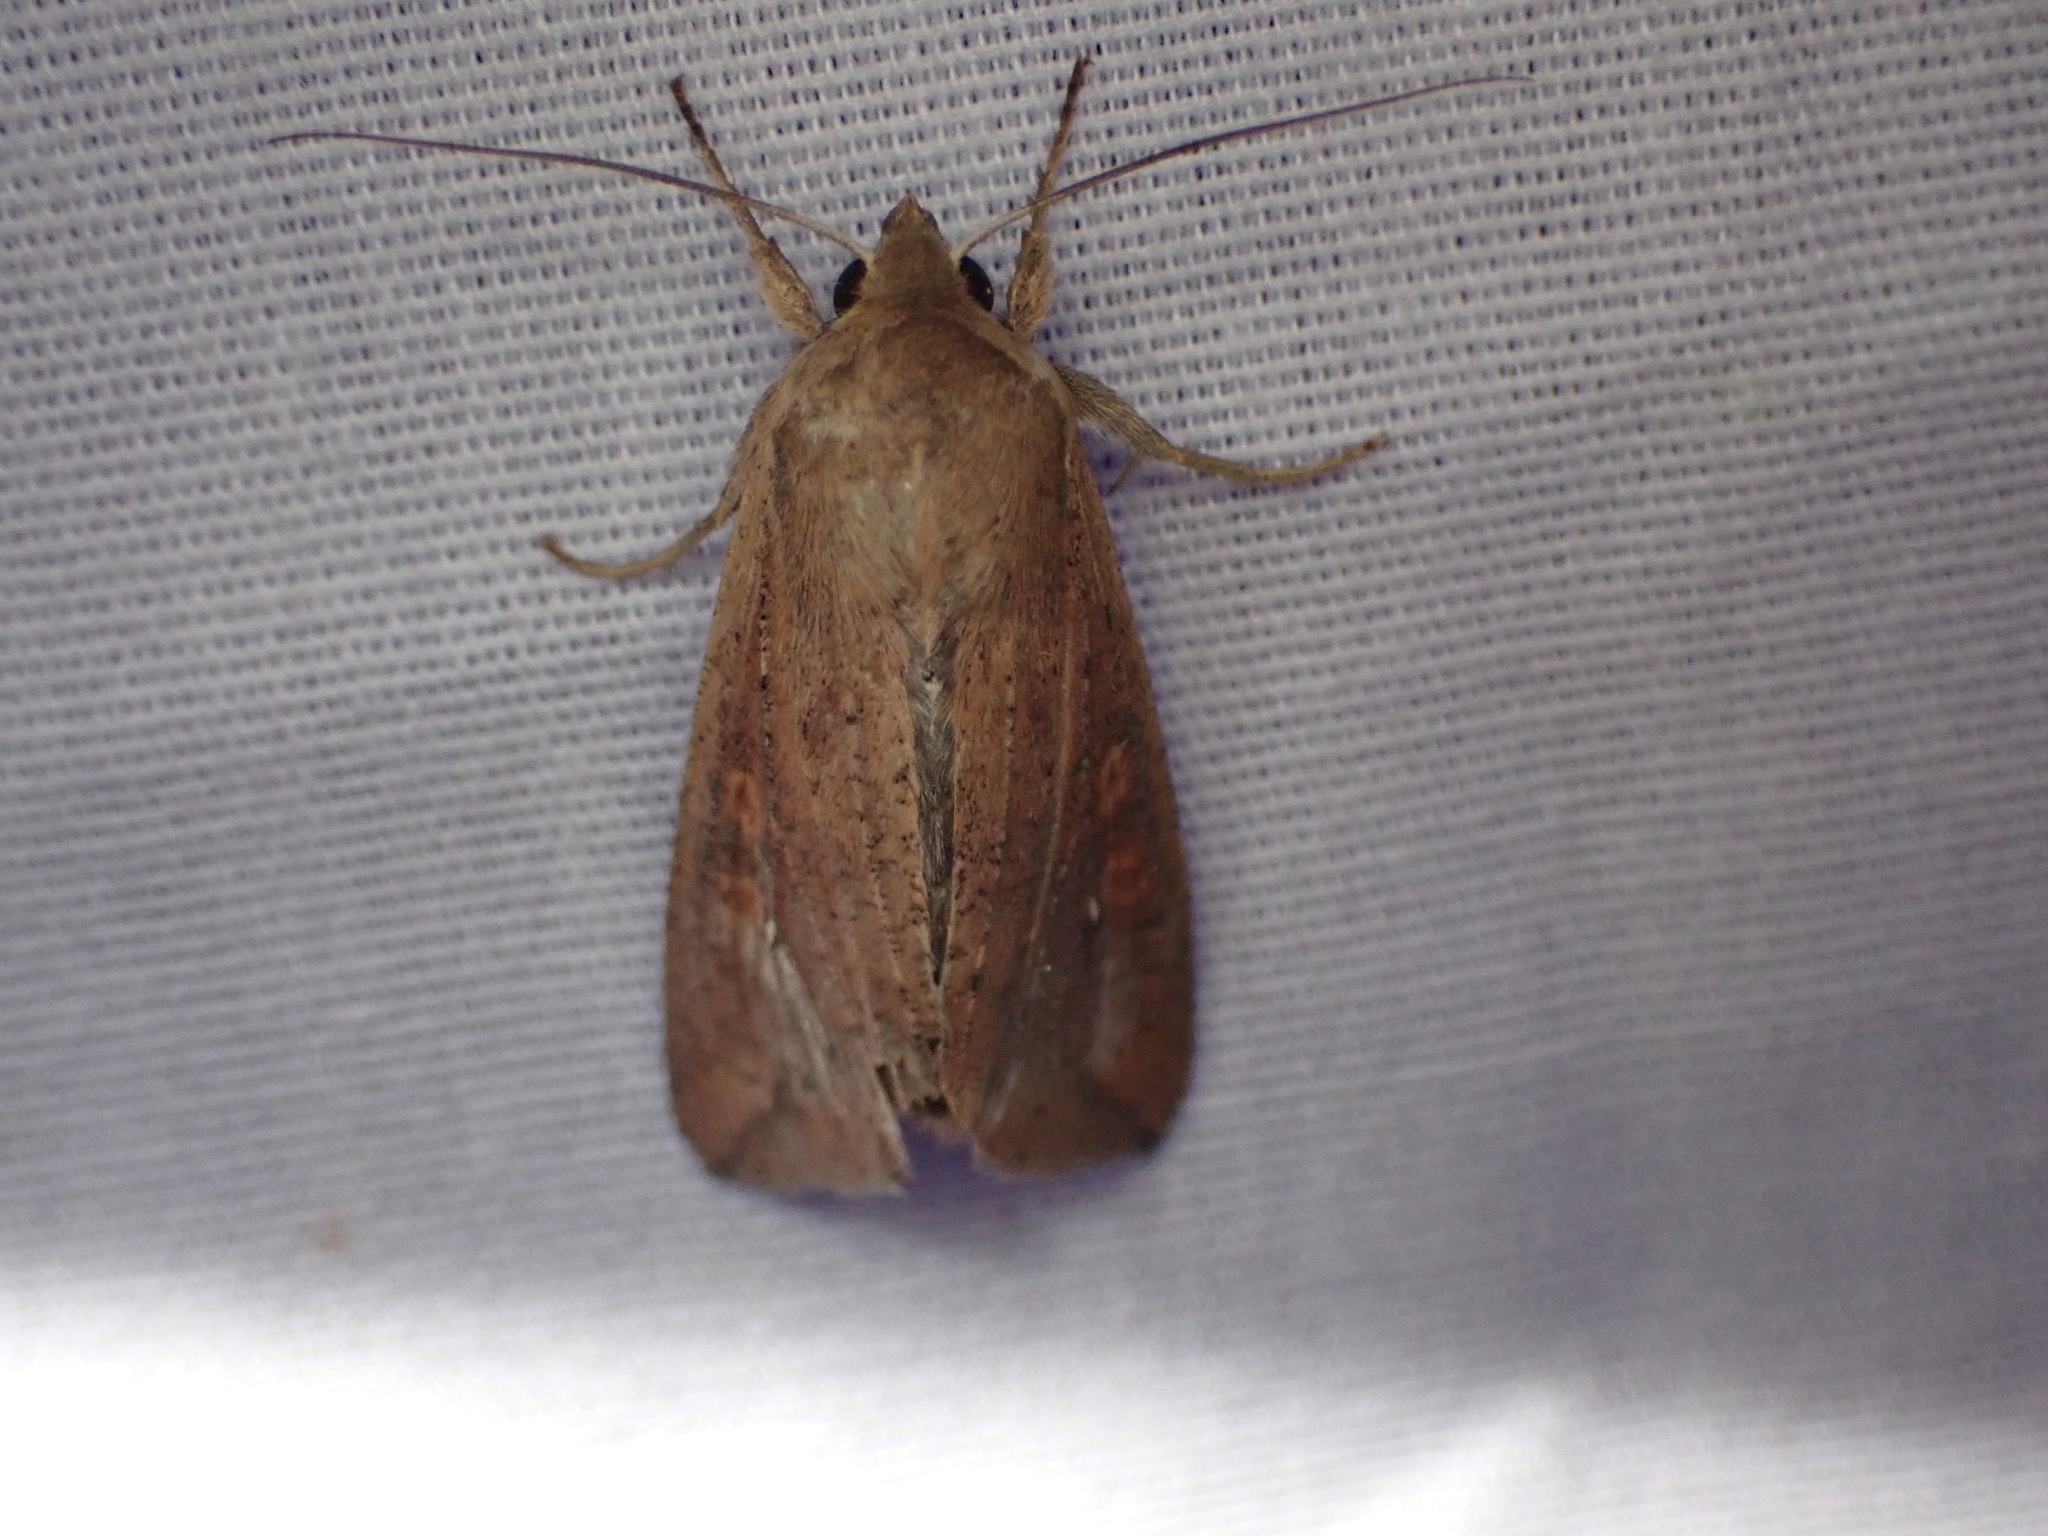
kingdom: Animalia
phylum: Arthropoda
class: Insecta
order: Lepidoptera
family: Noctuidae
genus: Mythimna
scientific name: Mythimna unipuncta
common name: White-speck
